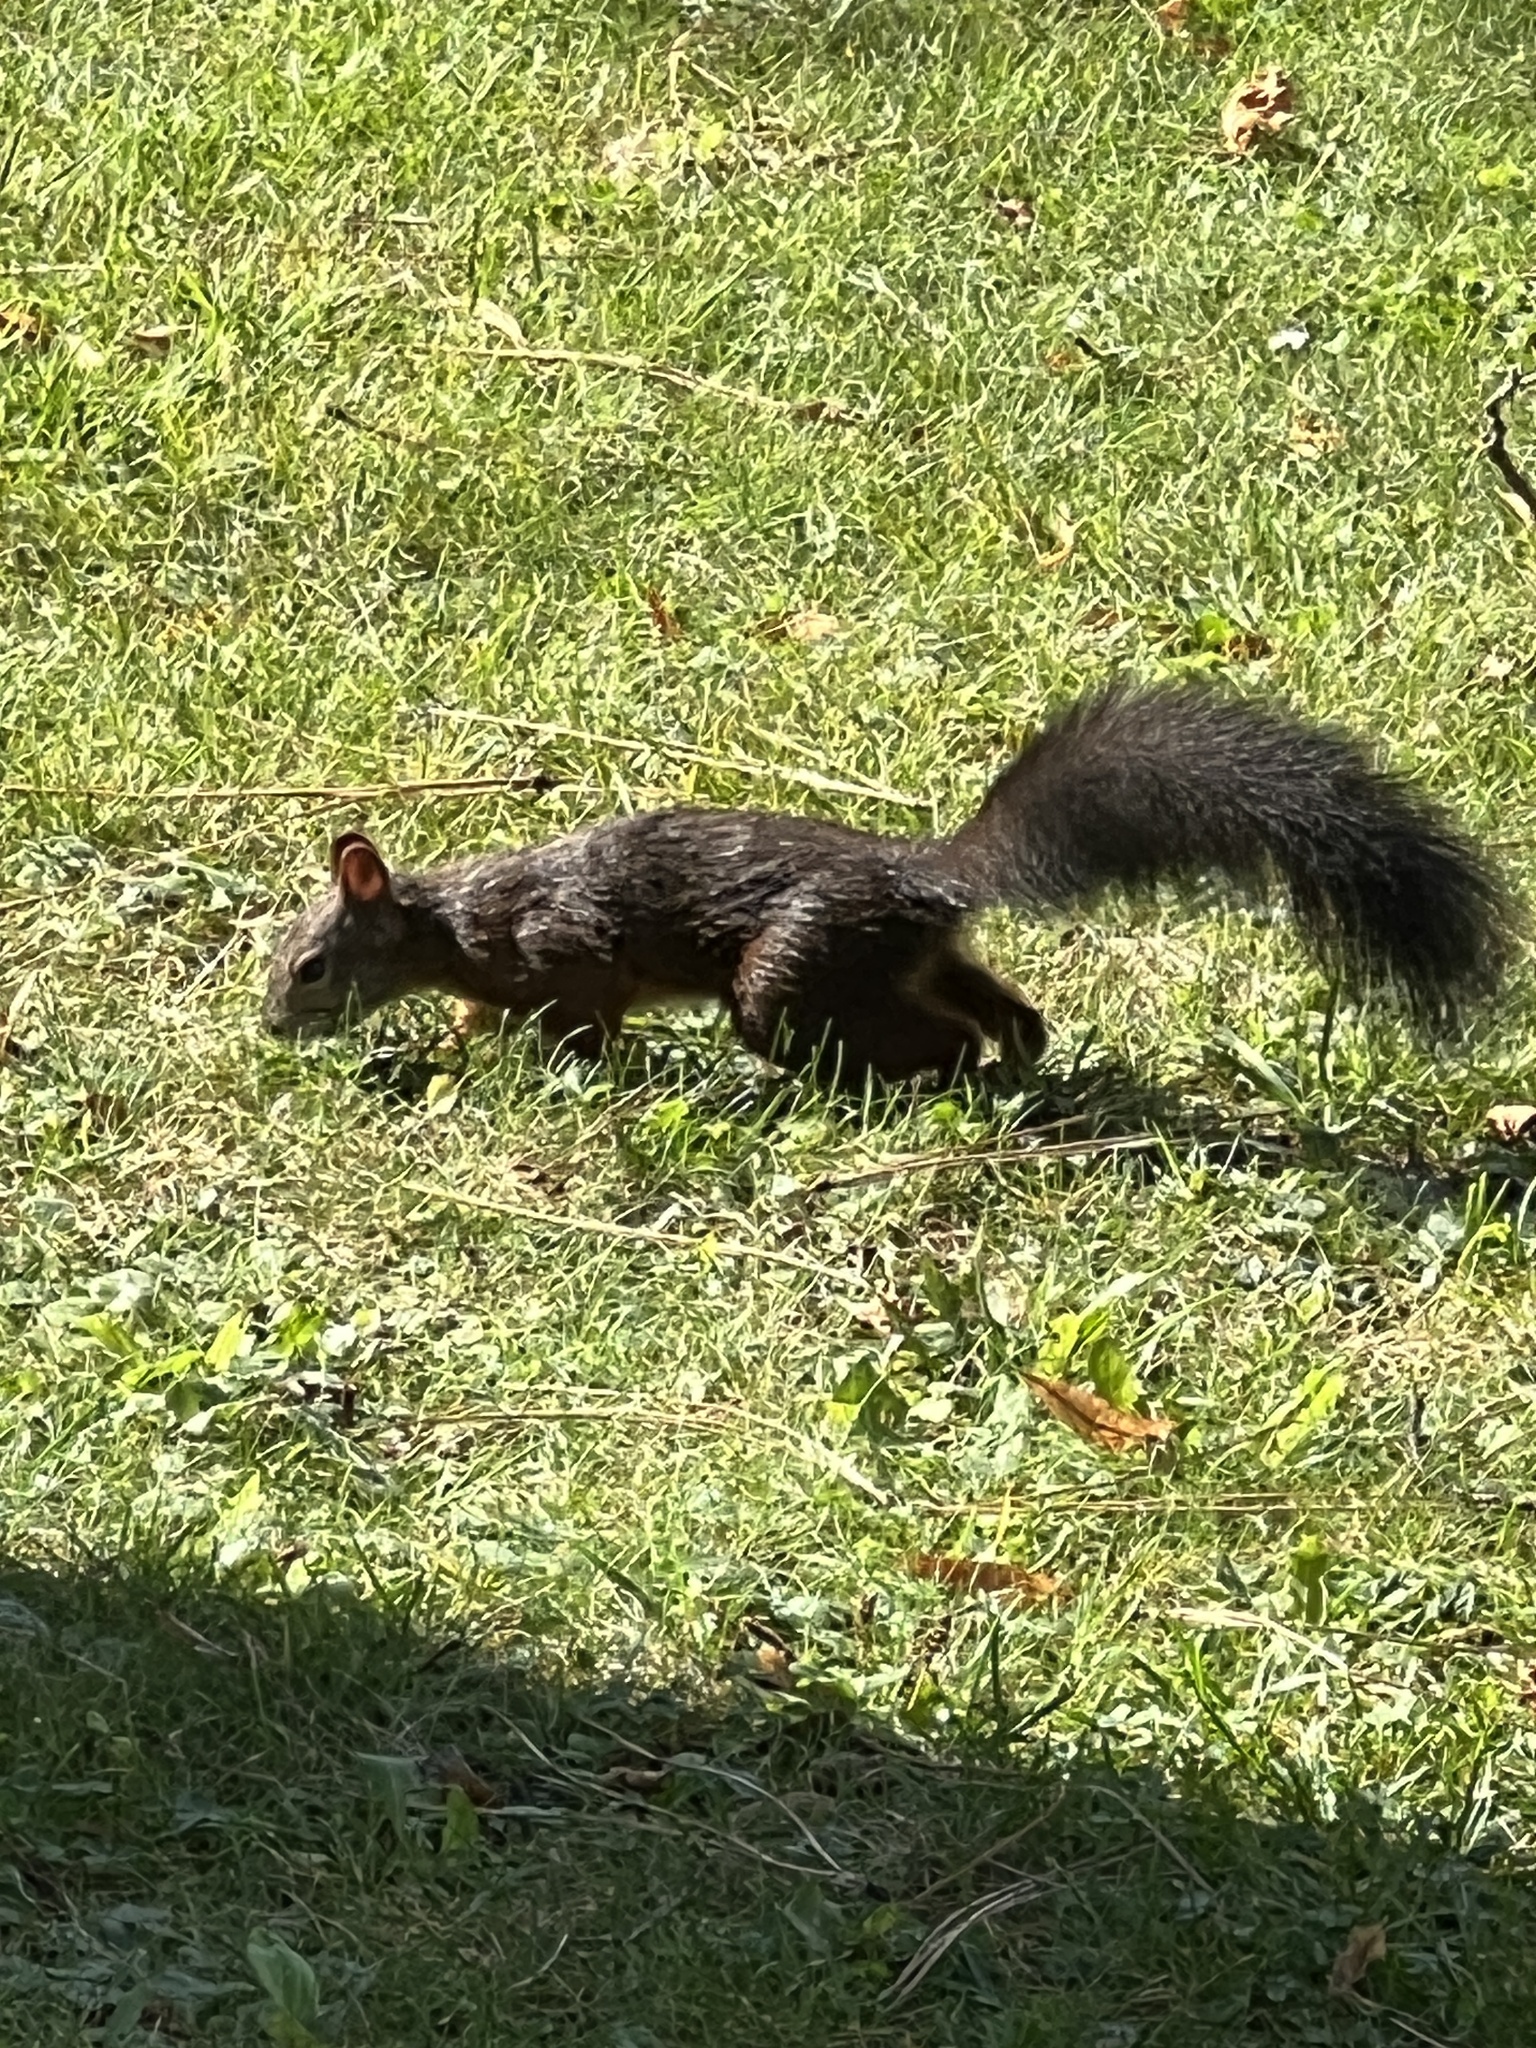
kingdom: Animalia
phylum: Chordata
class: Mammalia
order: Rodentia
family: Sciuridae
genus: Sciurus
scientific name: Sciurus vulgaris
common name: Eurasian red squirrel
